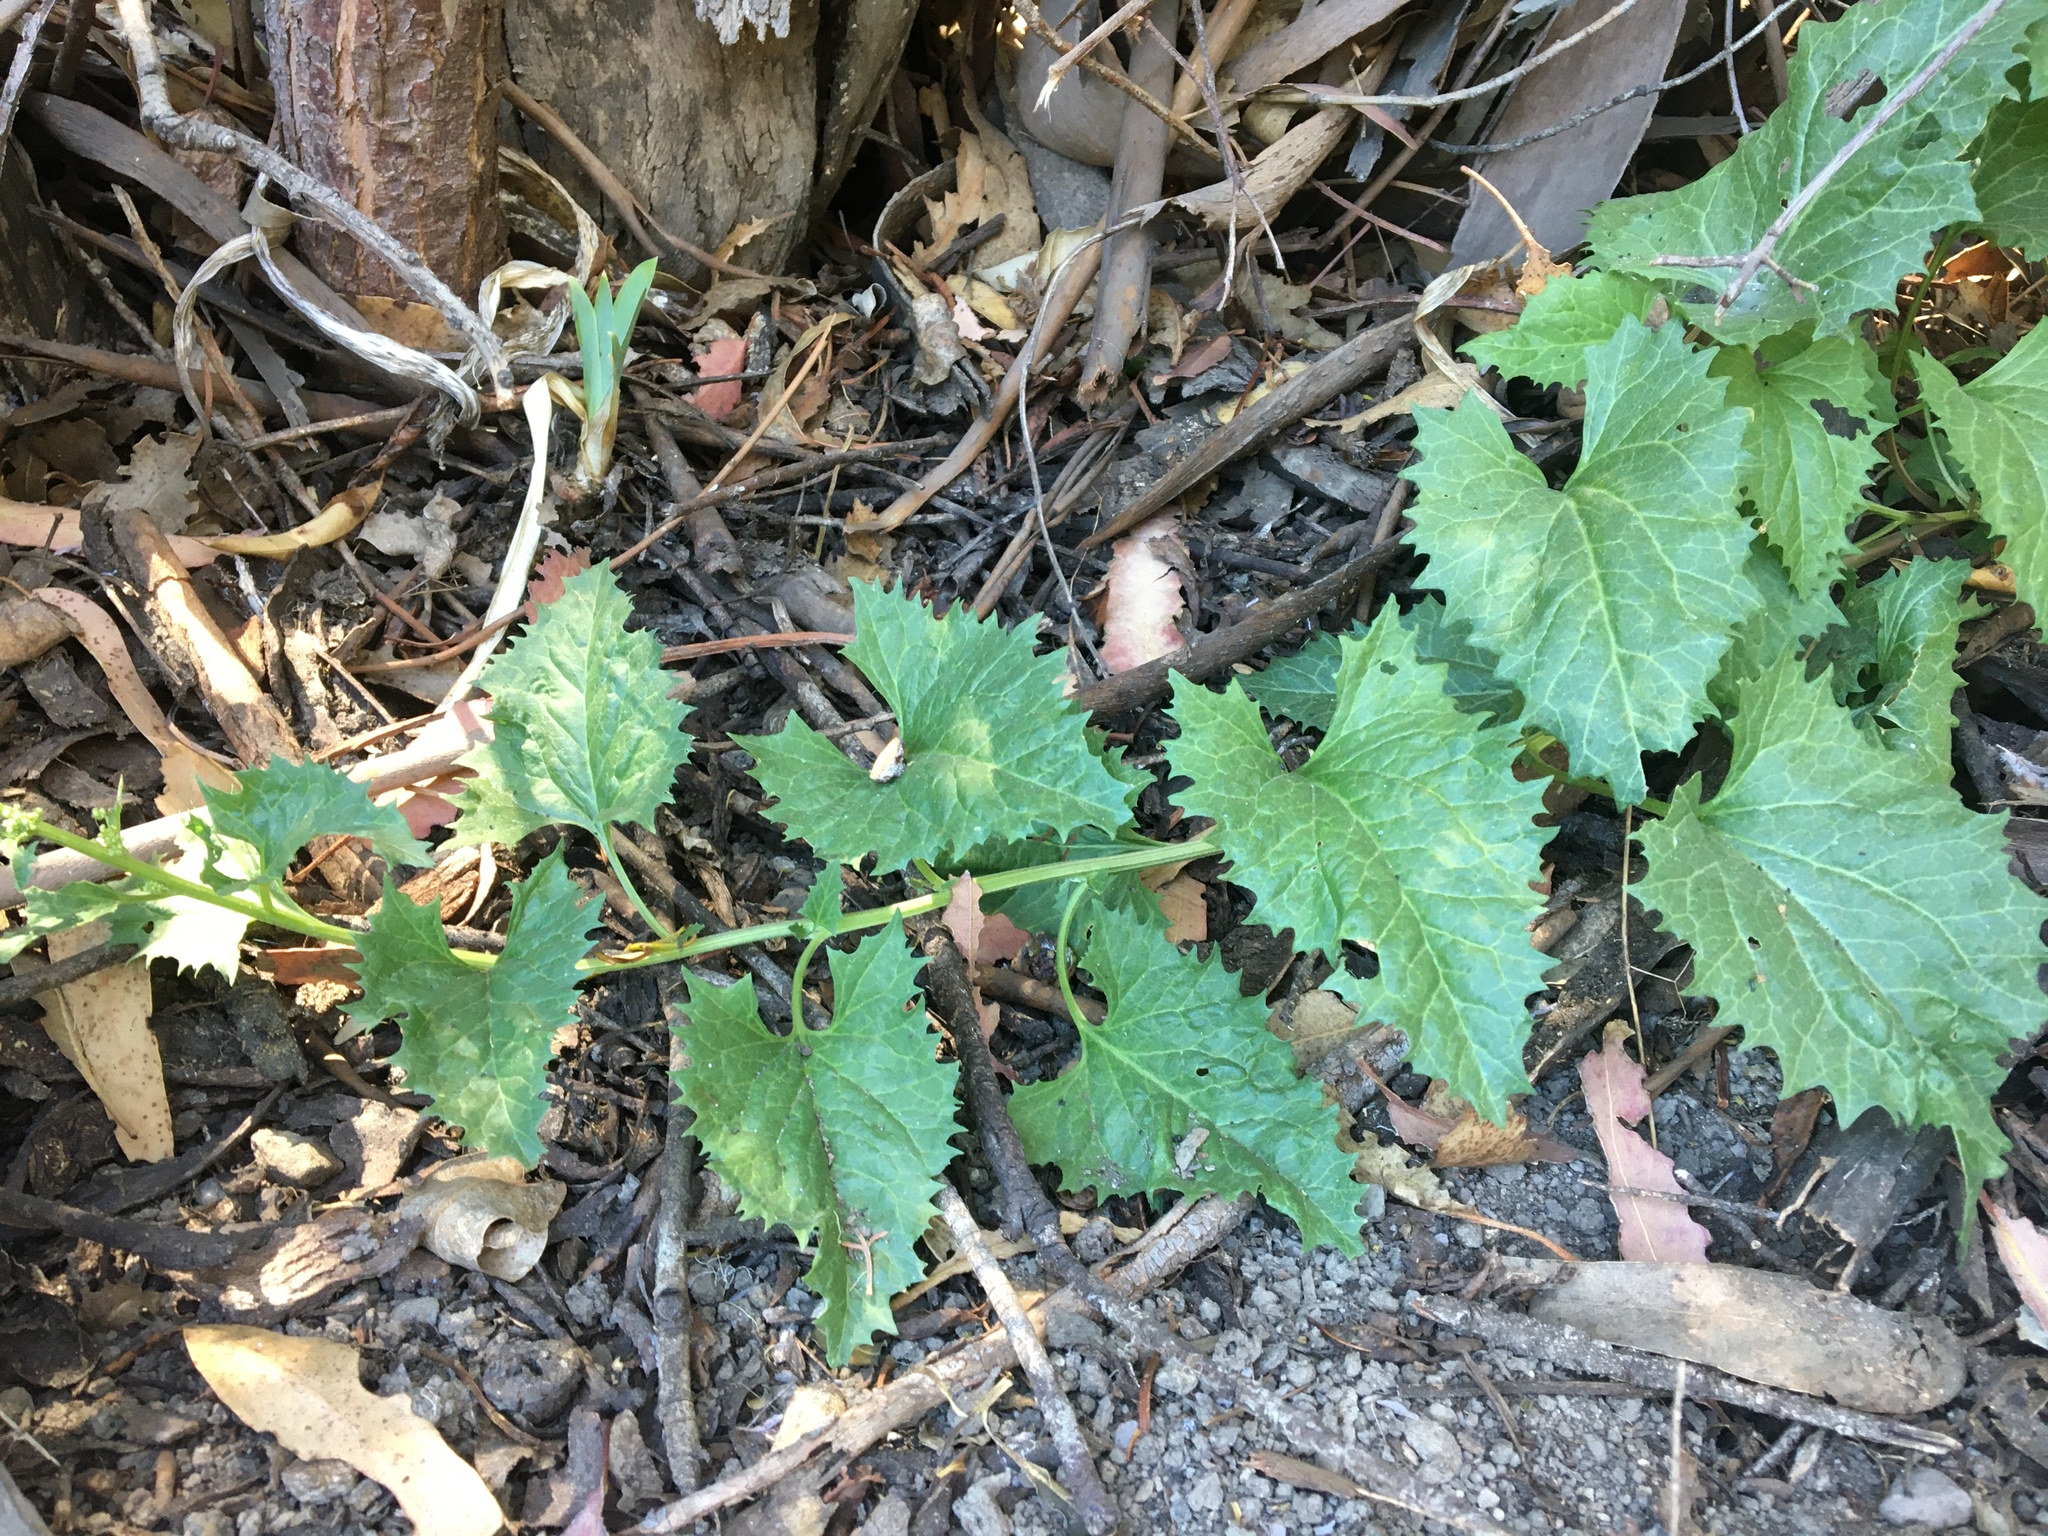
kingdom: Plantae
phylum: Tracheophyta
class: Magnoliopsida
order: Caryophyllales
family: Amaranthaceae
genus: Blitum
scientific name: Blitum californicum
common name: California goosefoot
